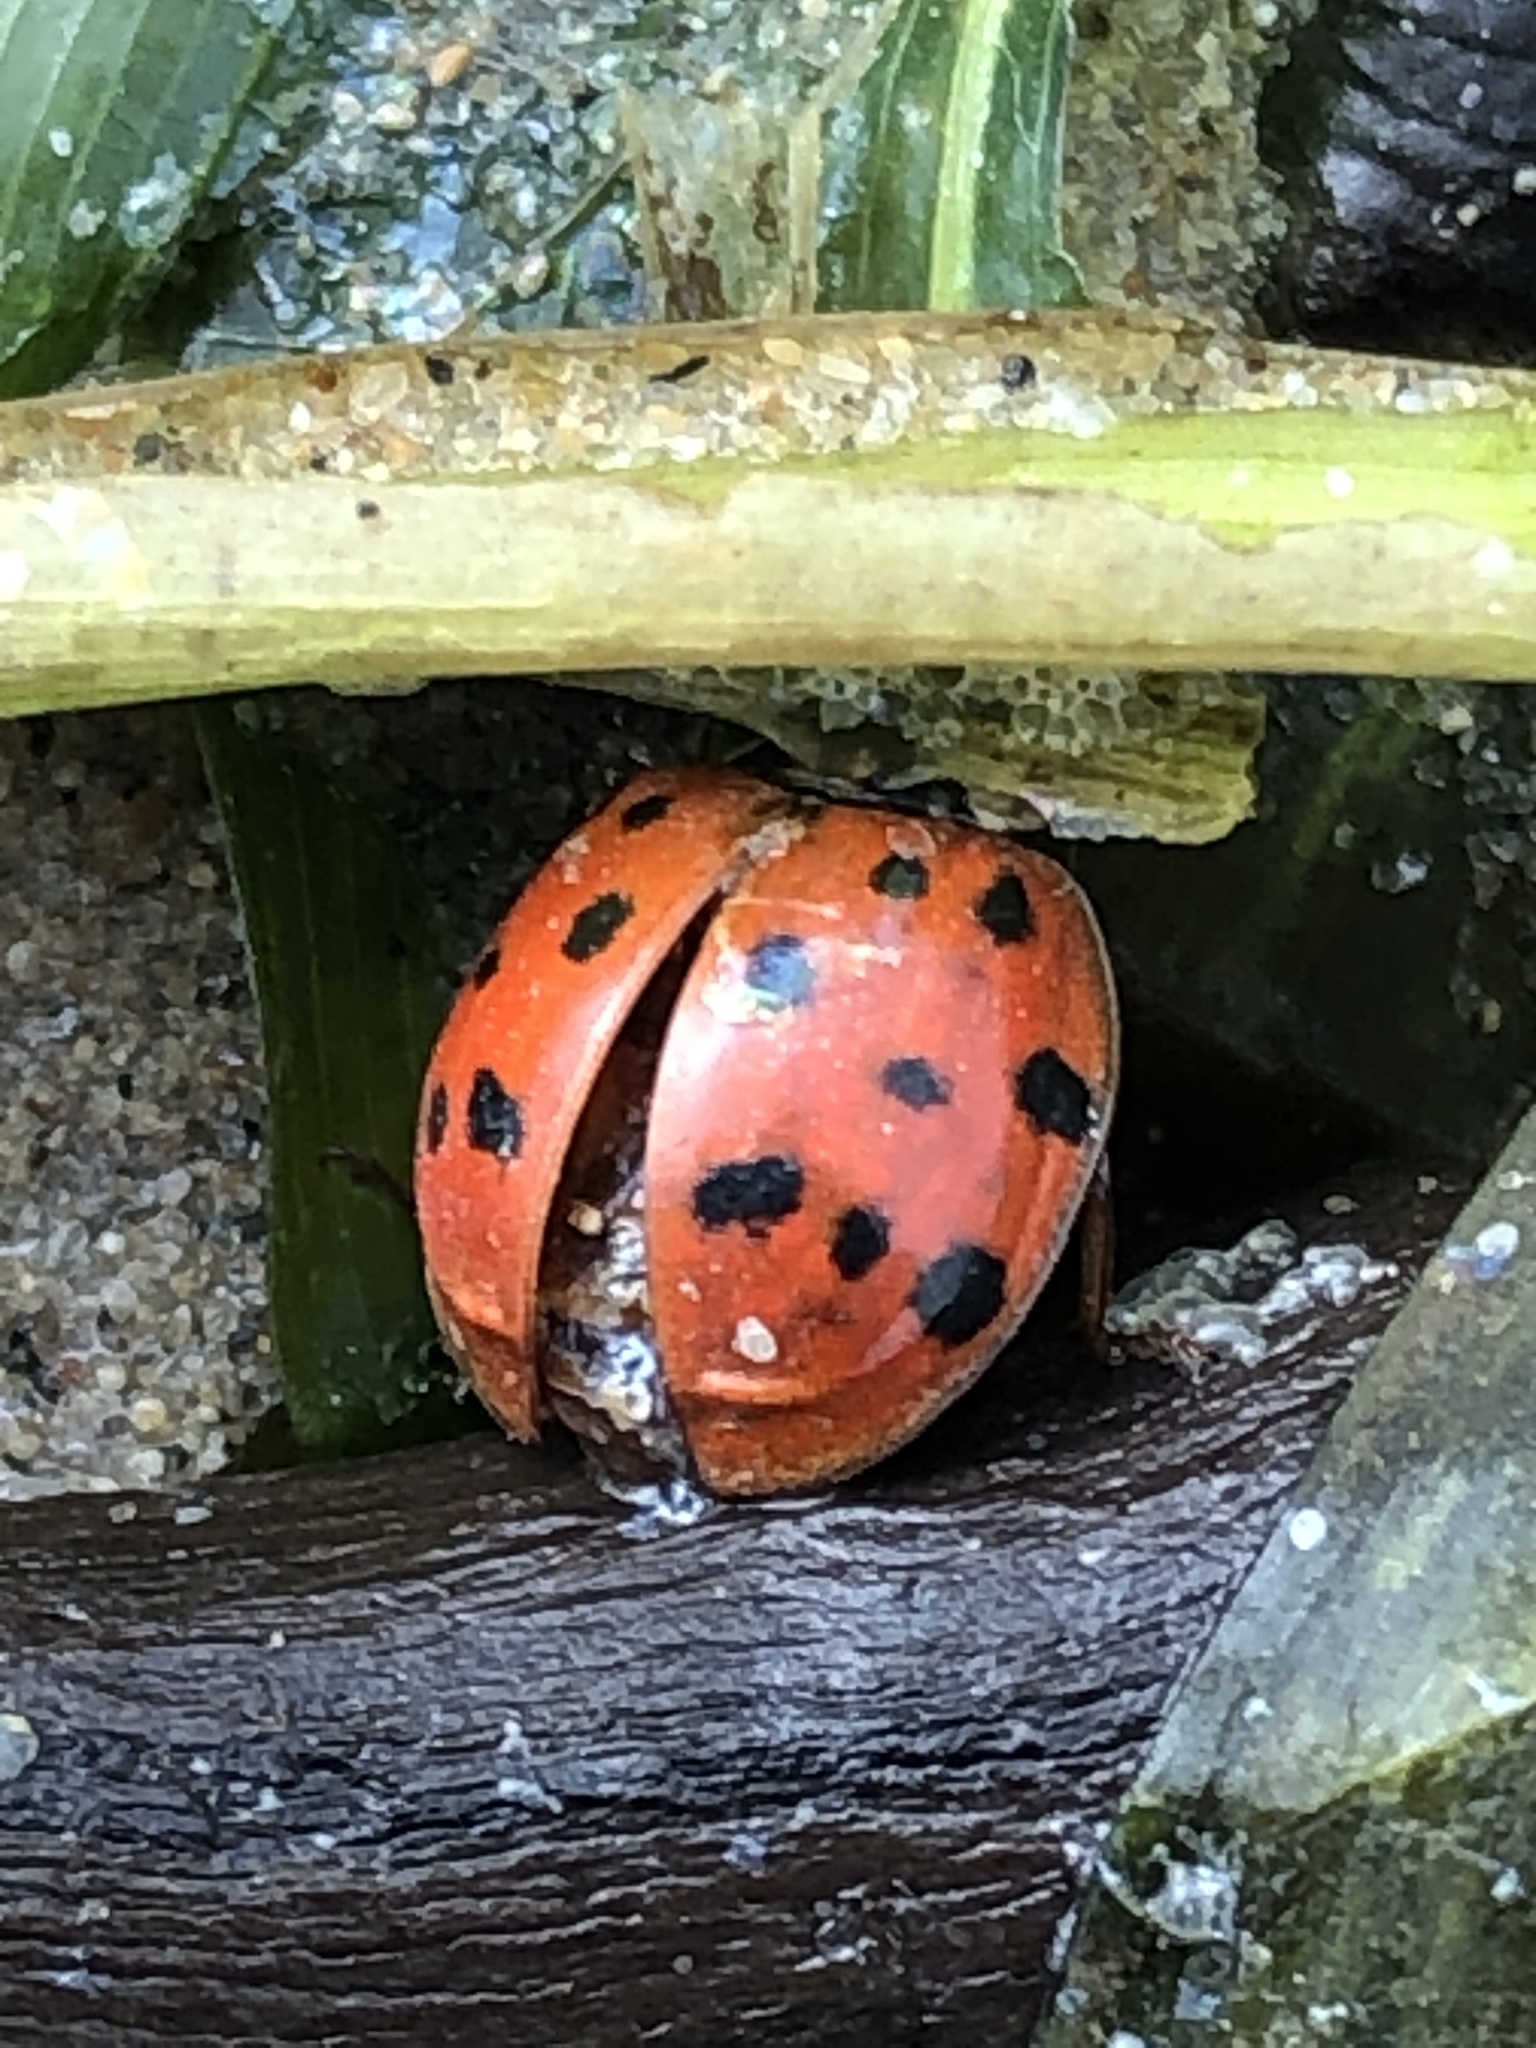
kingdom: Animalia
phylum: Arthropoda
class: Insecta
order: Coleoptera
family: Coccinellidae
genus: Harmonia
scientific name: Harmonia axyridis
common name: Harlequin ladybird
